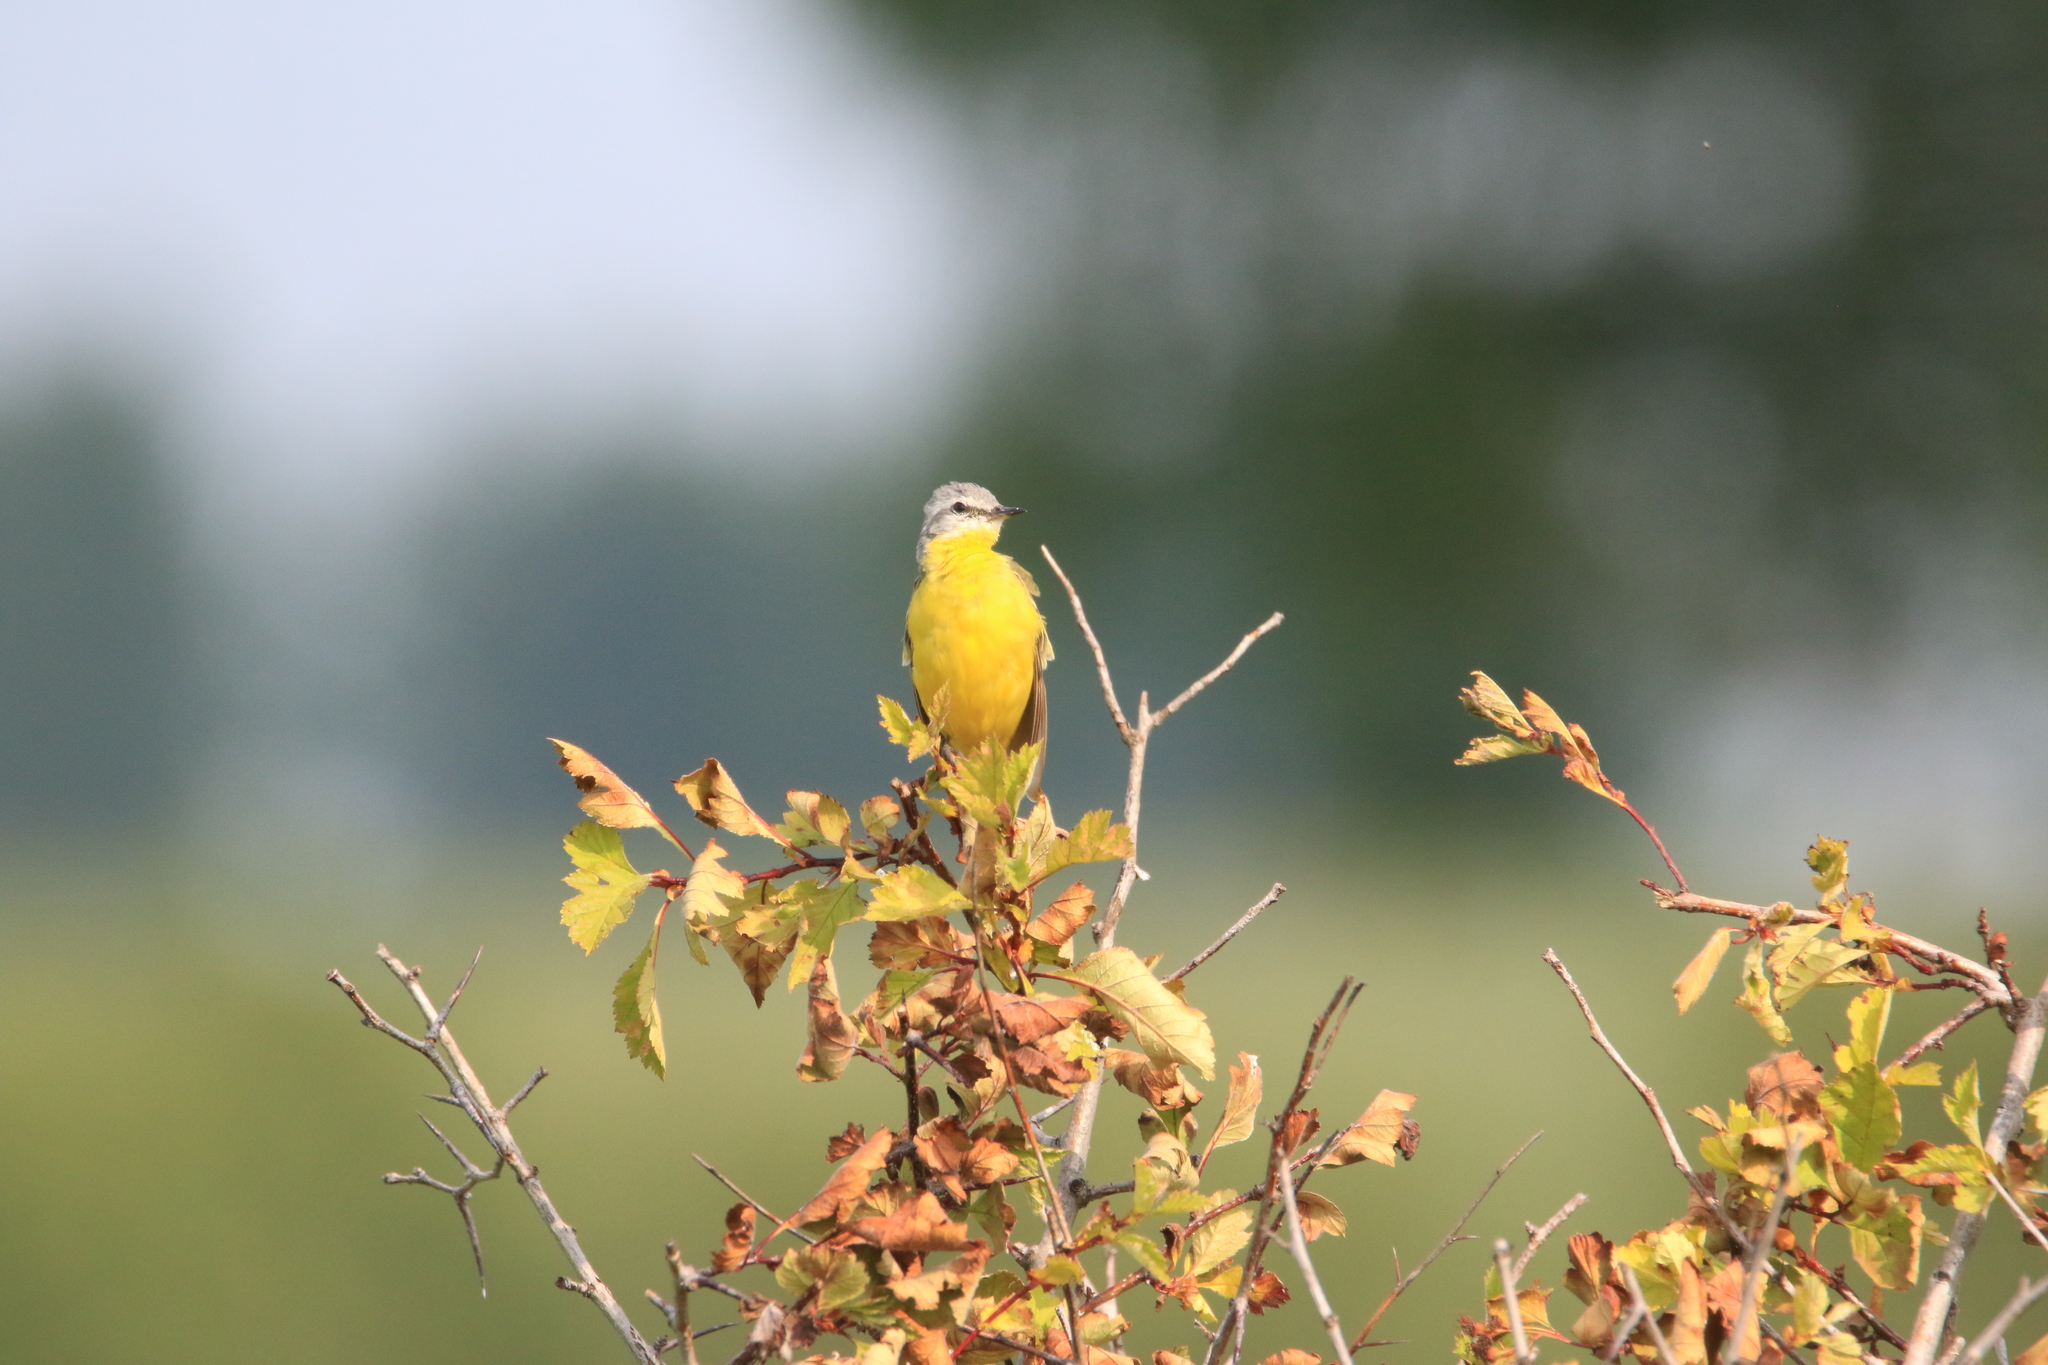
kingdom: Animalia
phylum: Chordata
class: Aves
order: Passeriformes
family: Motacillidae
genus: Motacilla
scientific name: Motacilla flava
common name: Western yellow wagtail
